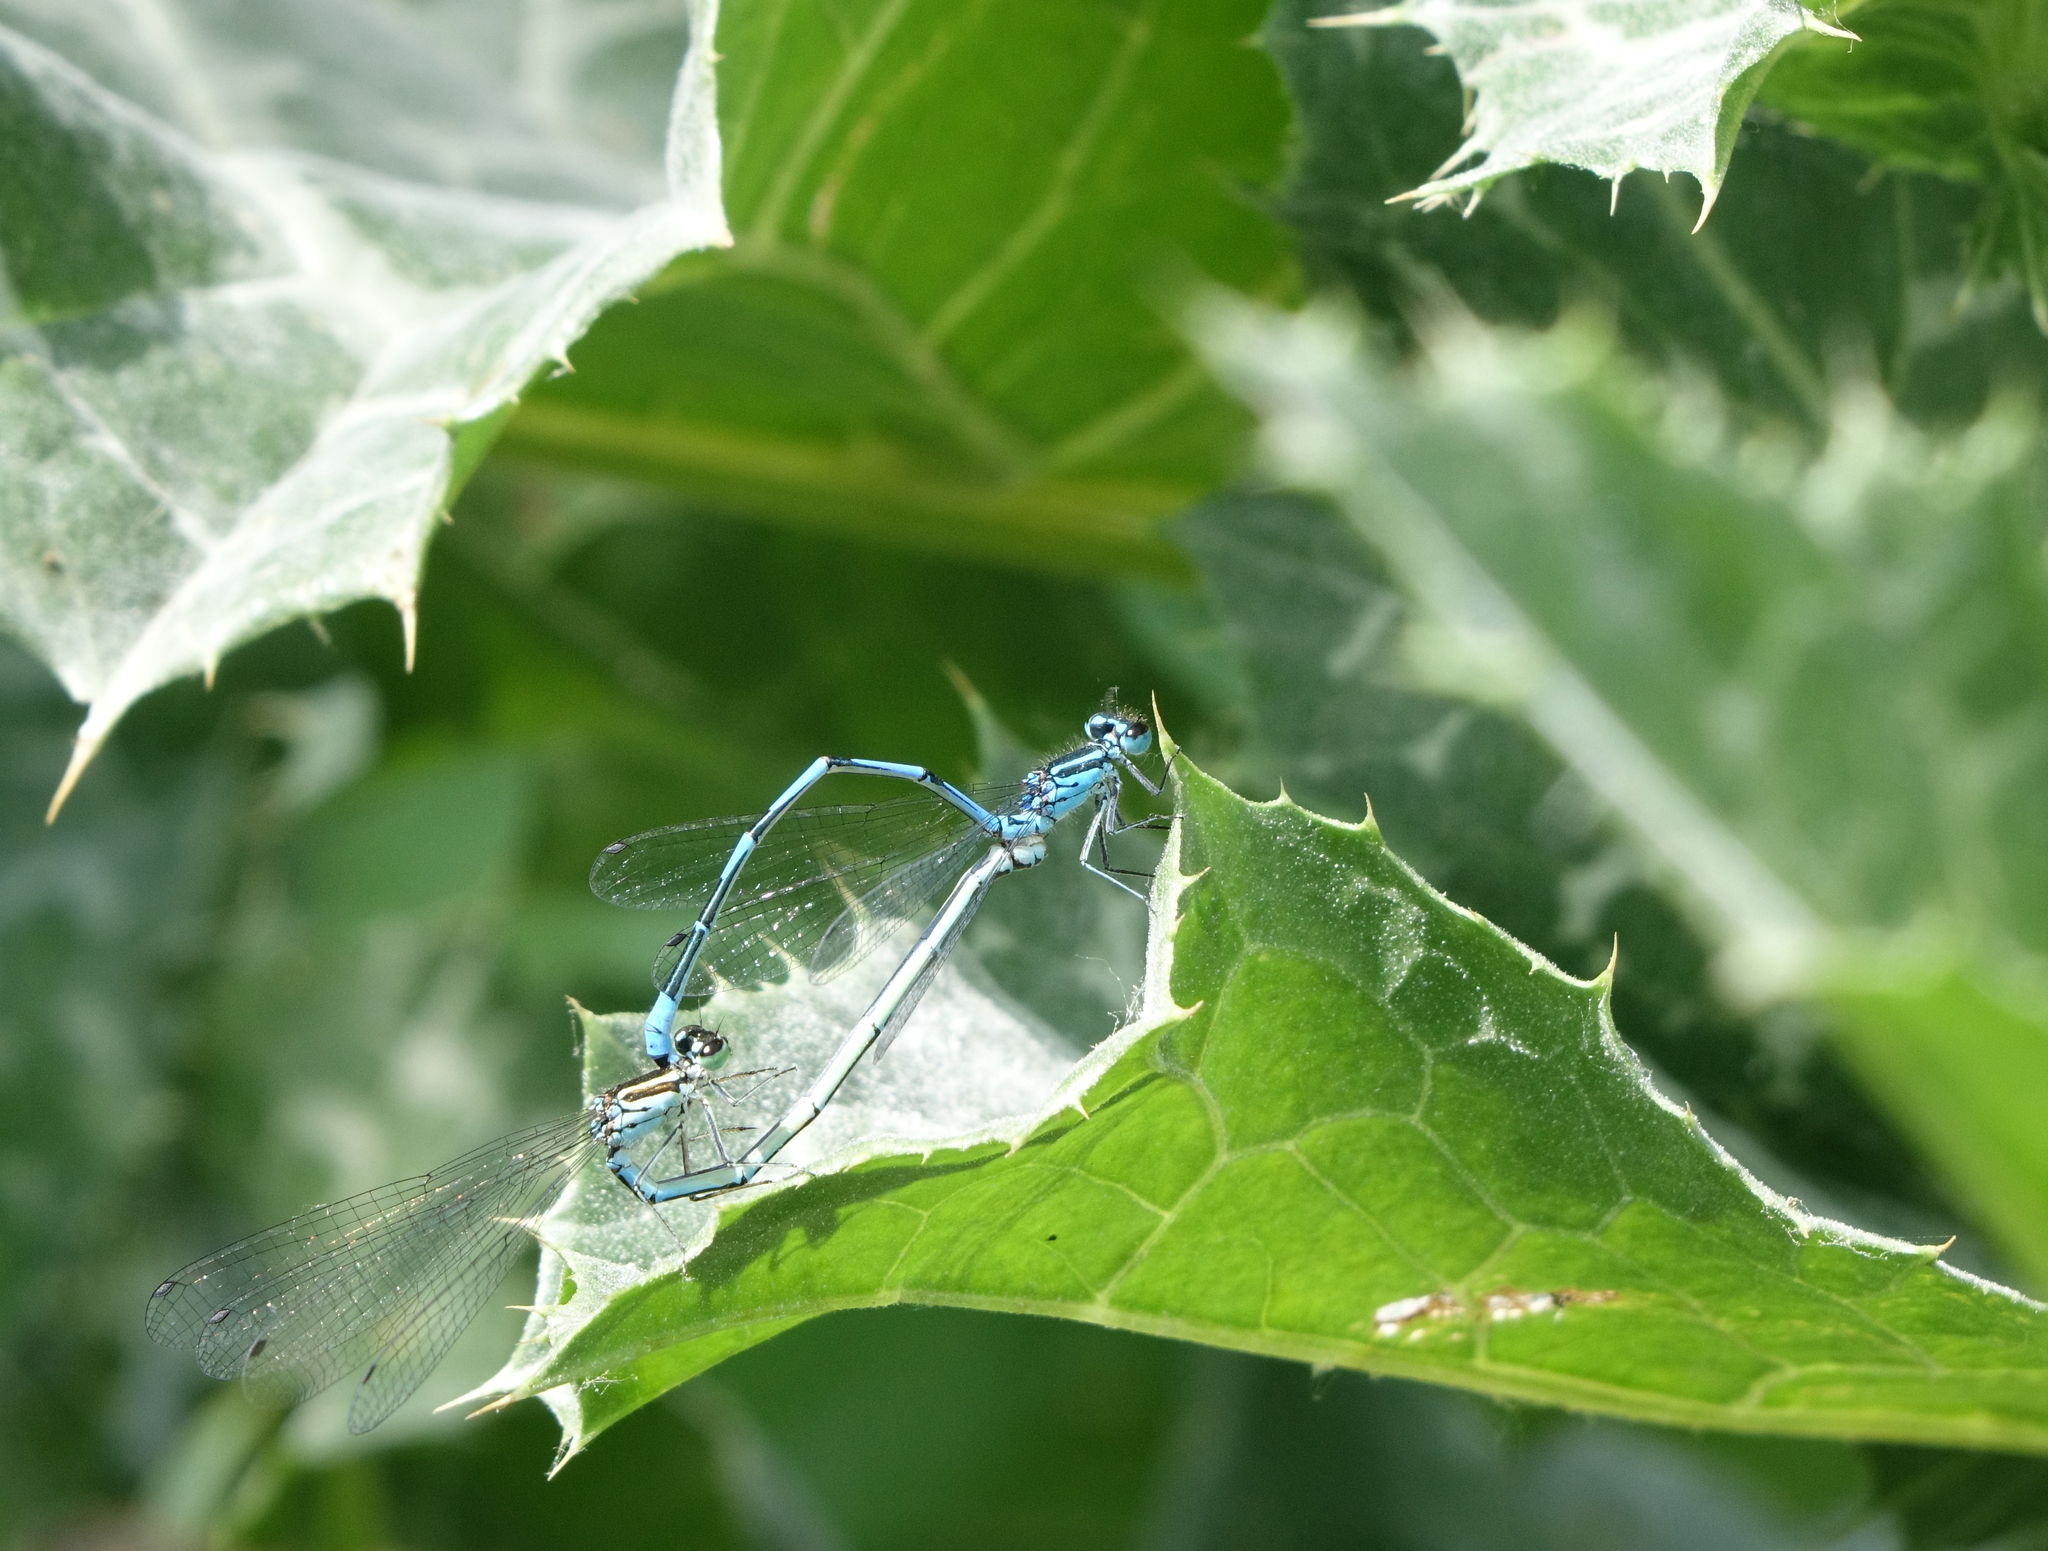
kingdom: Animalia
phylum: Arthropoda
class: Insecta
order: Odonata
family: Coenagrionidae
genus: Coenagrion
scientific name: Coenagrion australocaspicum
